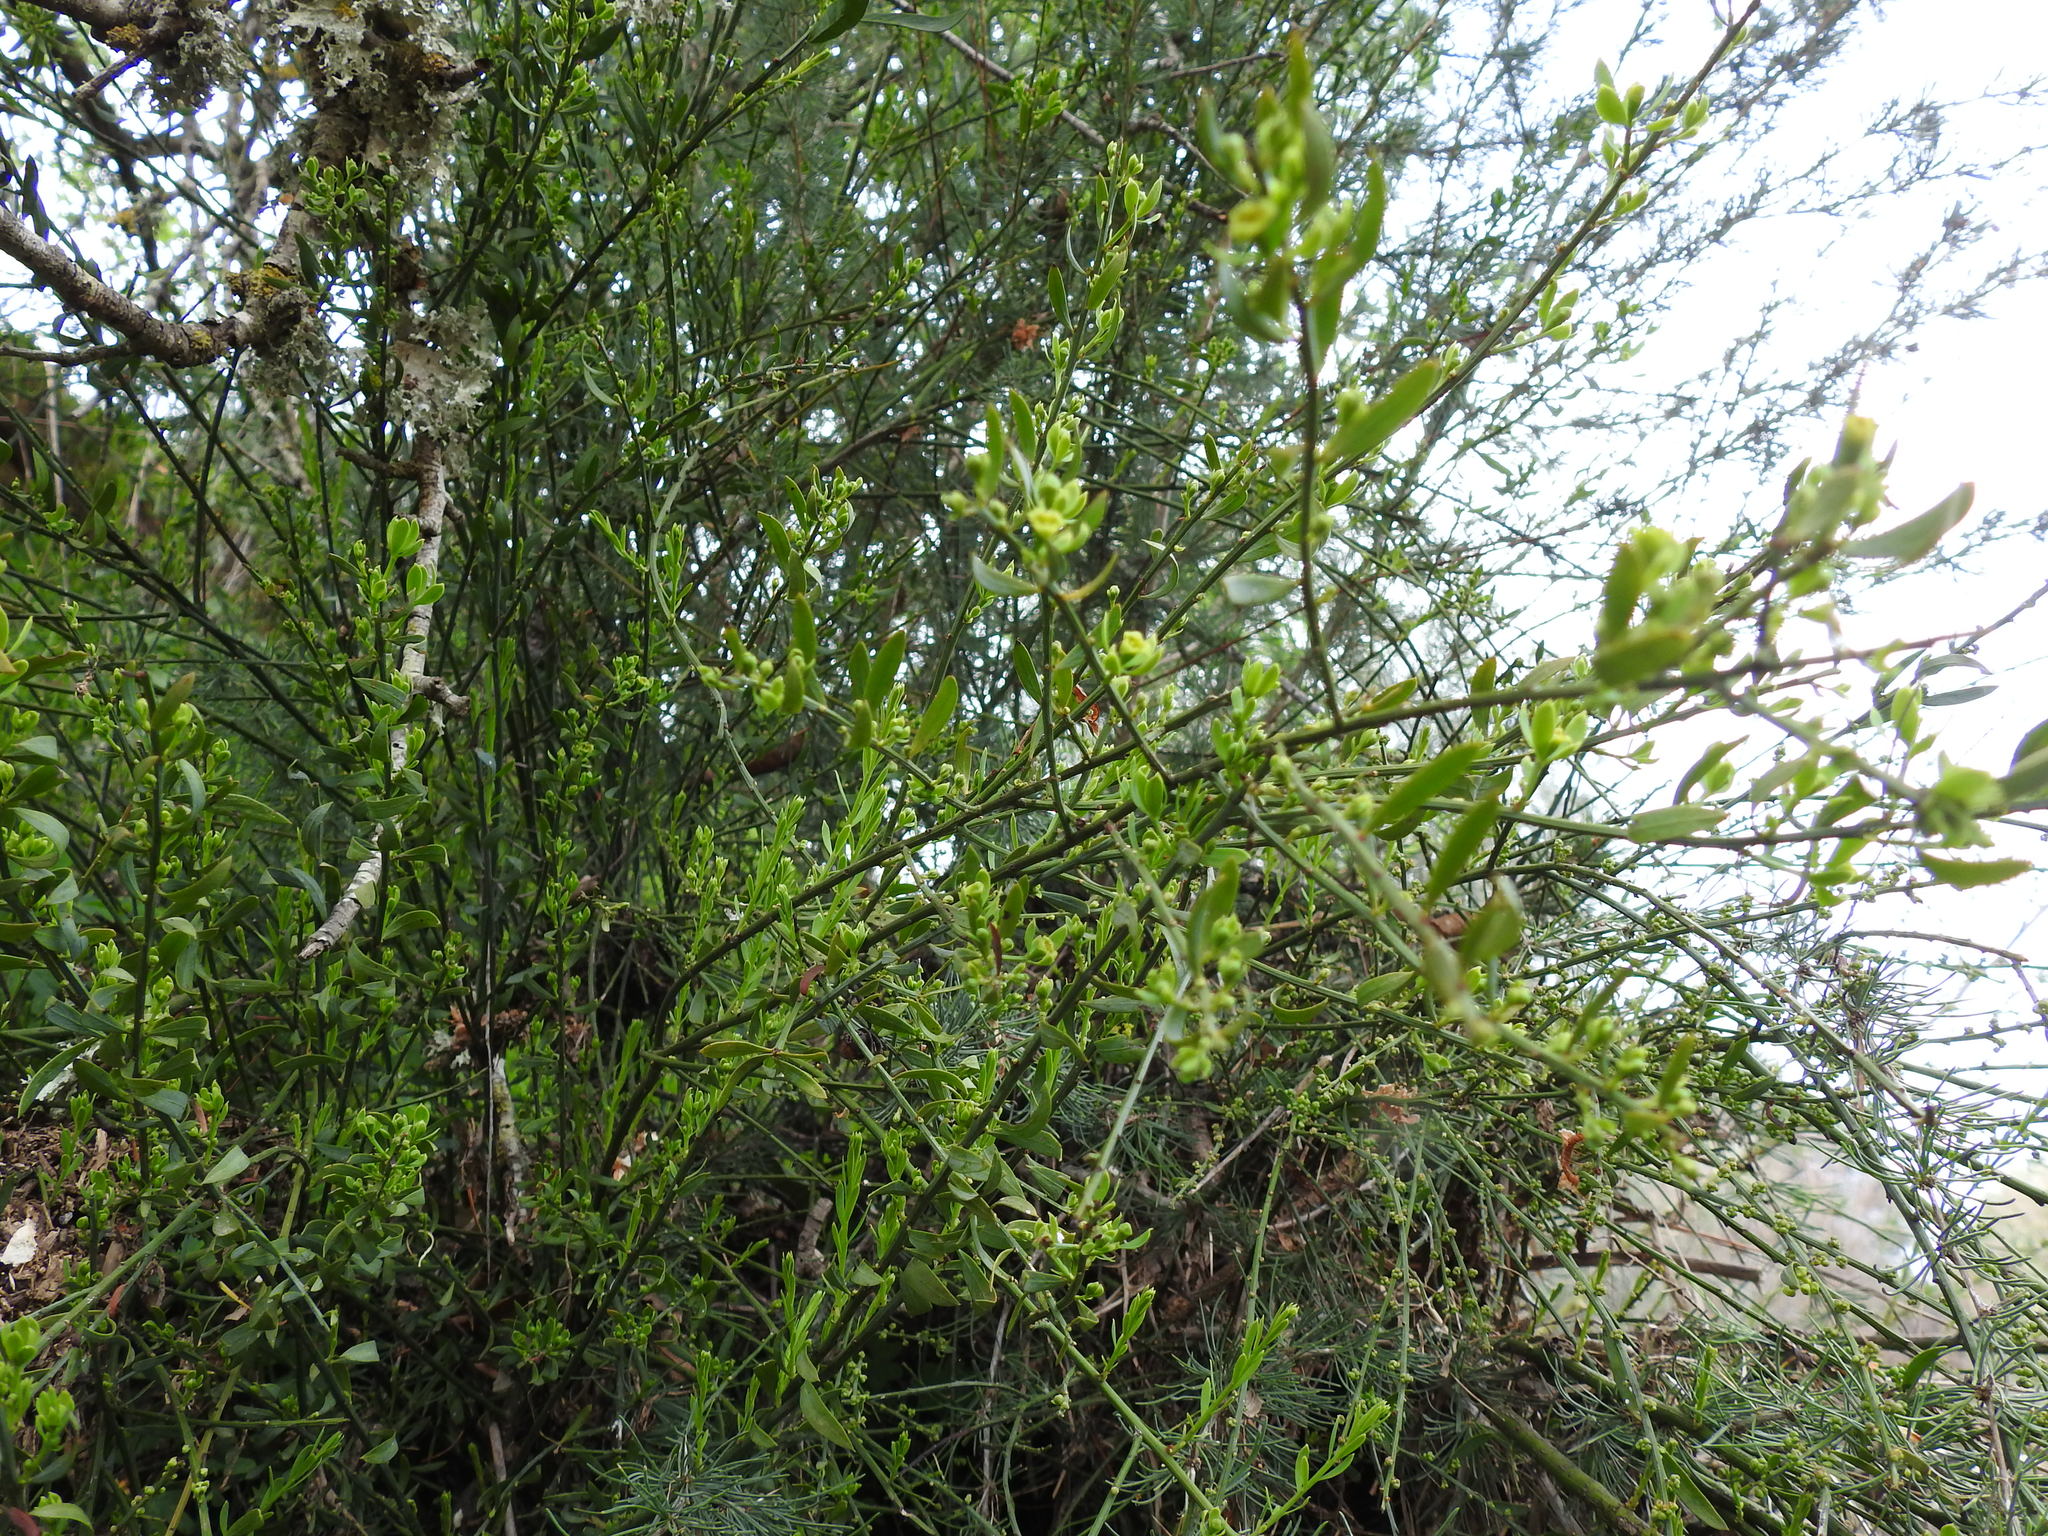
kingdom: Plantae
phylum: Tracheophyta
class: Magnoliopsida
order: Santalales
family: Santalaceae
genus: Osyris
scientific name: Osyris alba
